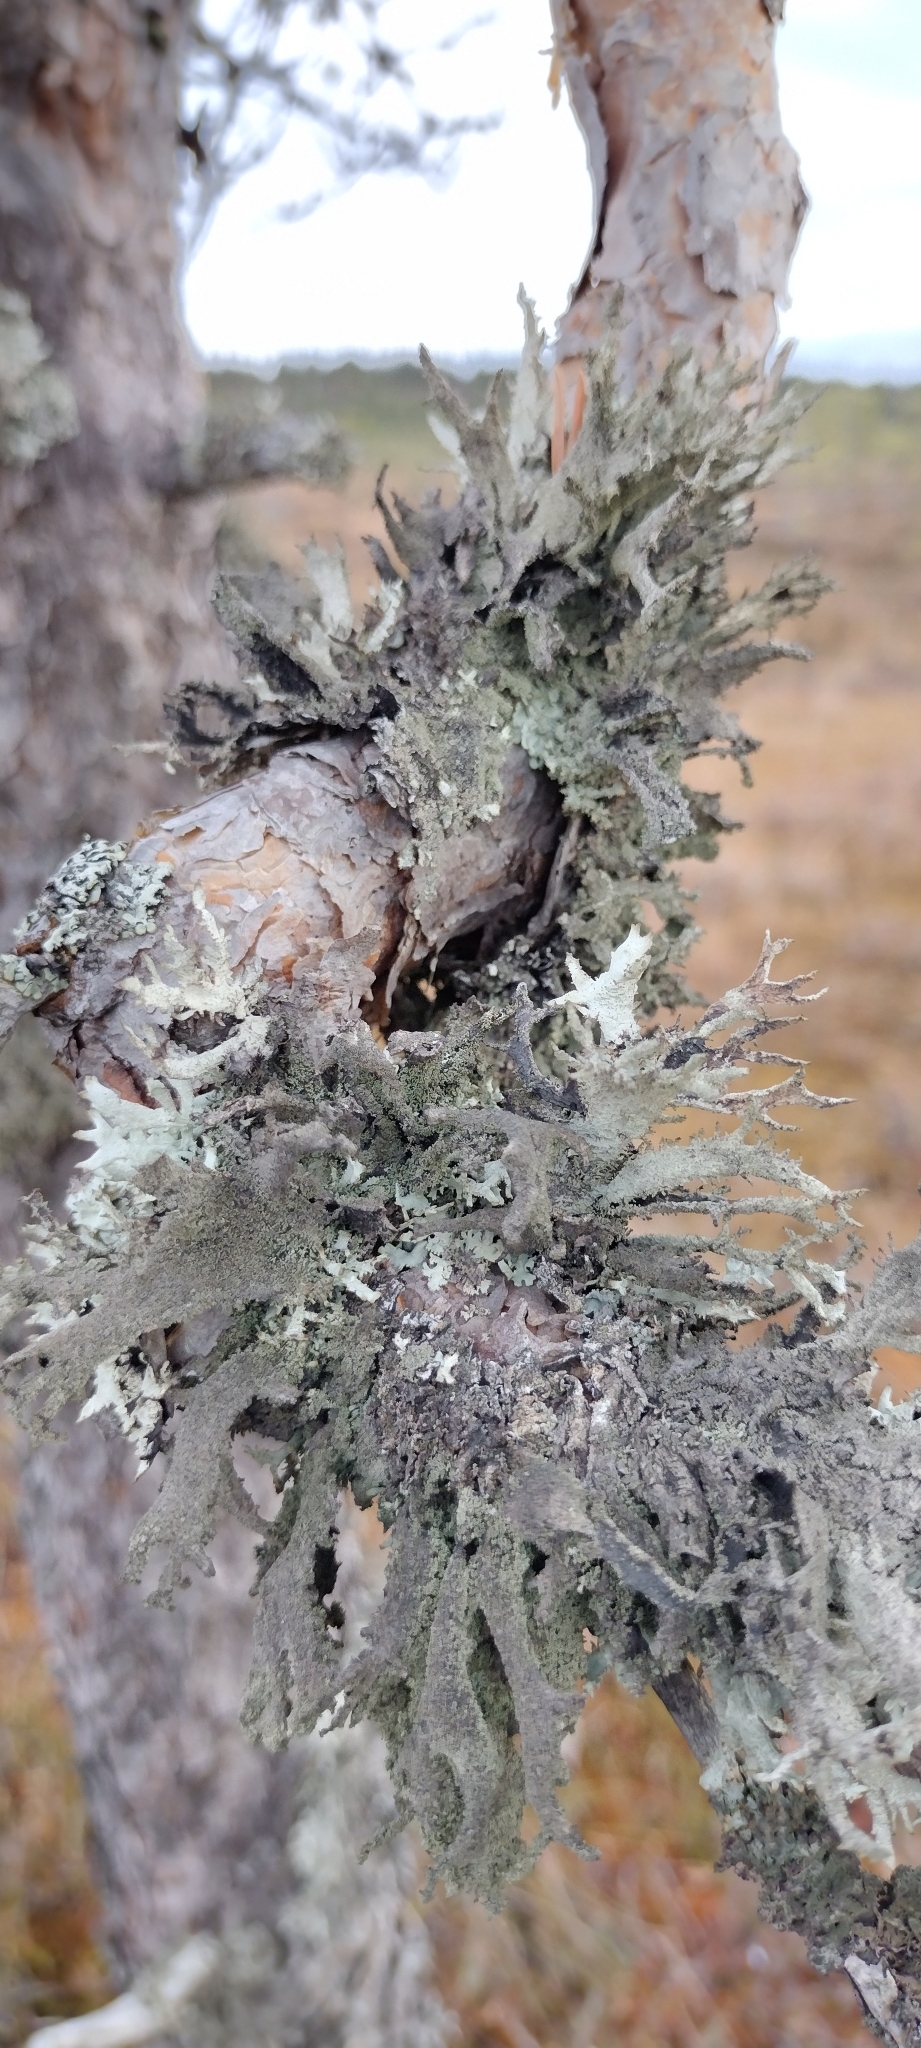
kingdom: Fungi
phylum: Ascomycota
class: Lecanoromycetes
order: Lecanorales
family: Parmeliaceae
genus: Pseudevernia
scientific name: Pseudevernia furfuracea
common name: Tree moss
